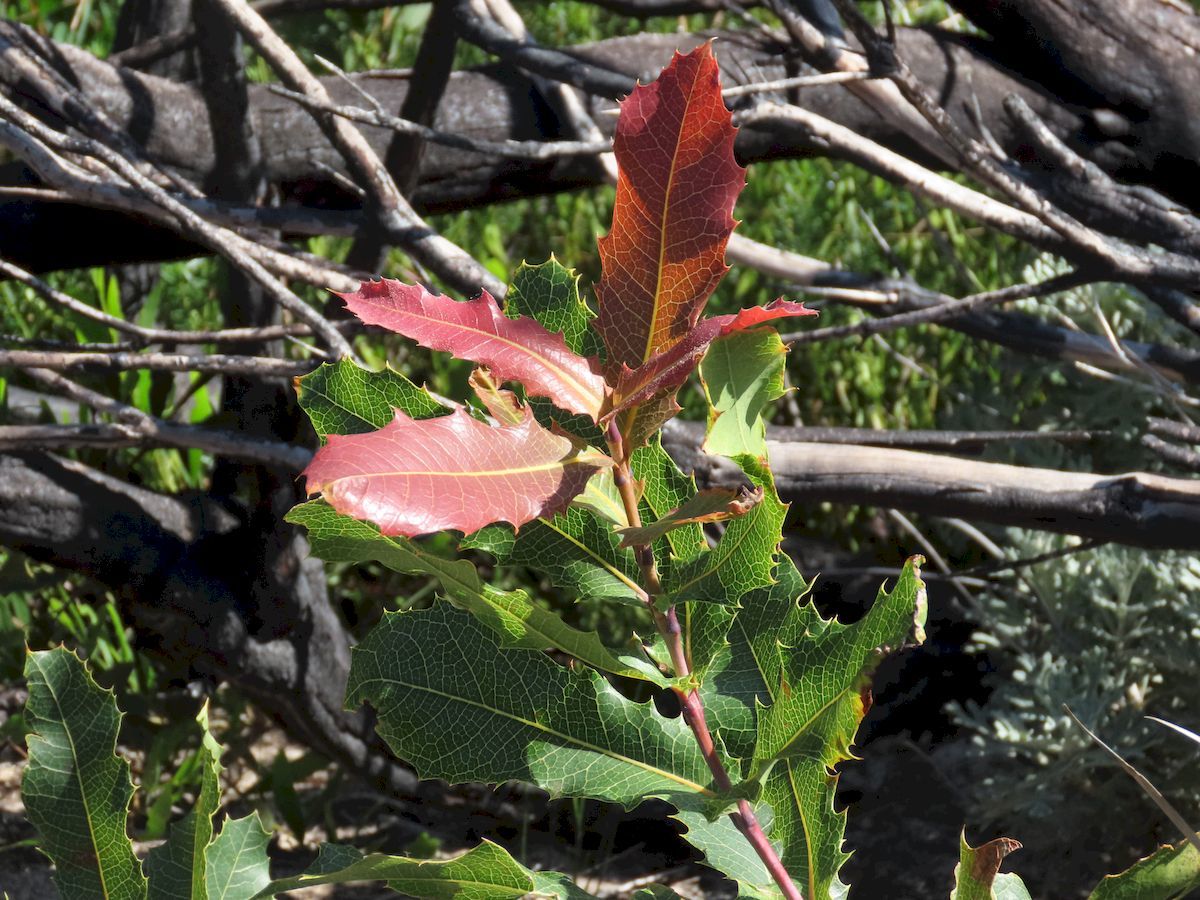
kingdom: Plantae
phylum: Tracheophyta
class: Magnoliopsida
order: Proteales
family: Proteaceae
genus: Xylomelum
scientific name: Xylomelum pyriforme
